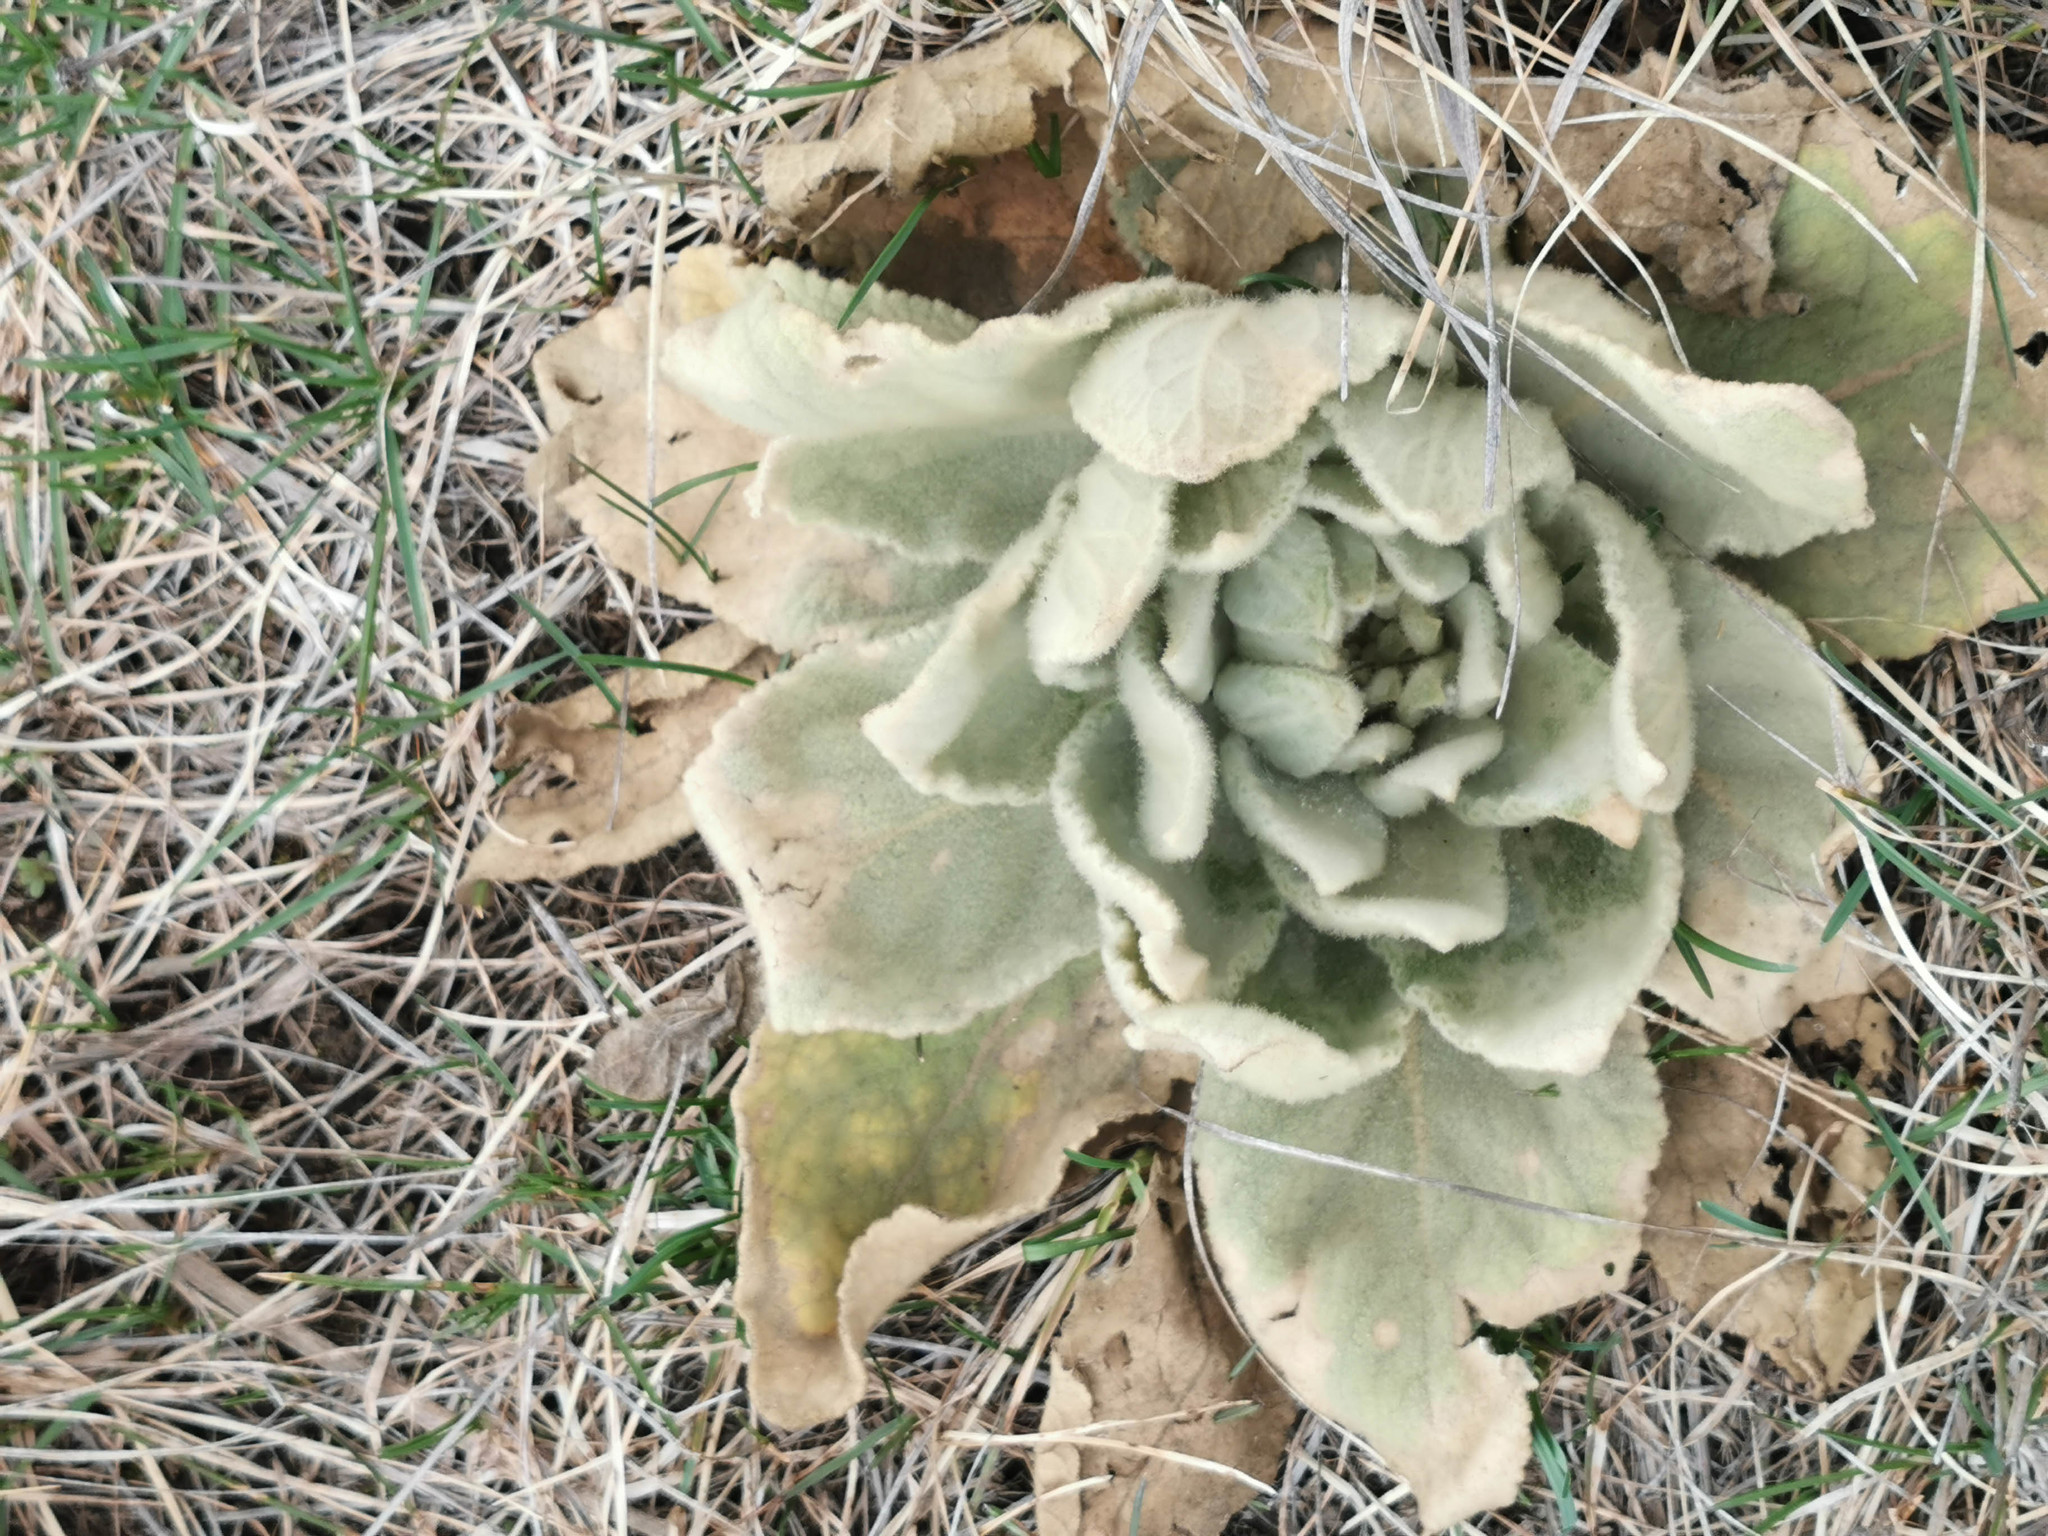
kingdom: Plantae
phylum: Tracheophyta
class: Magnoliopsida
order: Lamiales
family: Scrophulariaceae
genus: Verbascum
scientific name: Verbascum thapsus
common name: Common mullein
